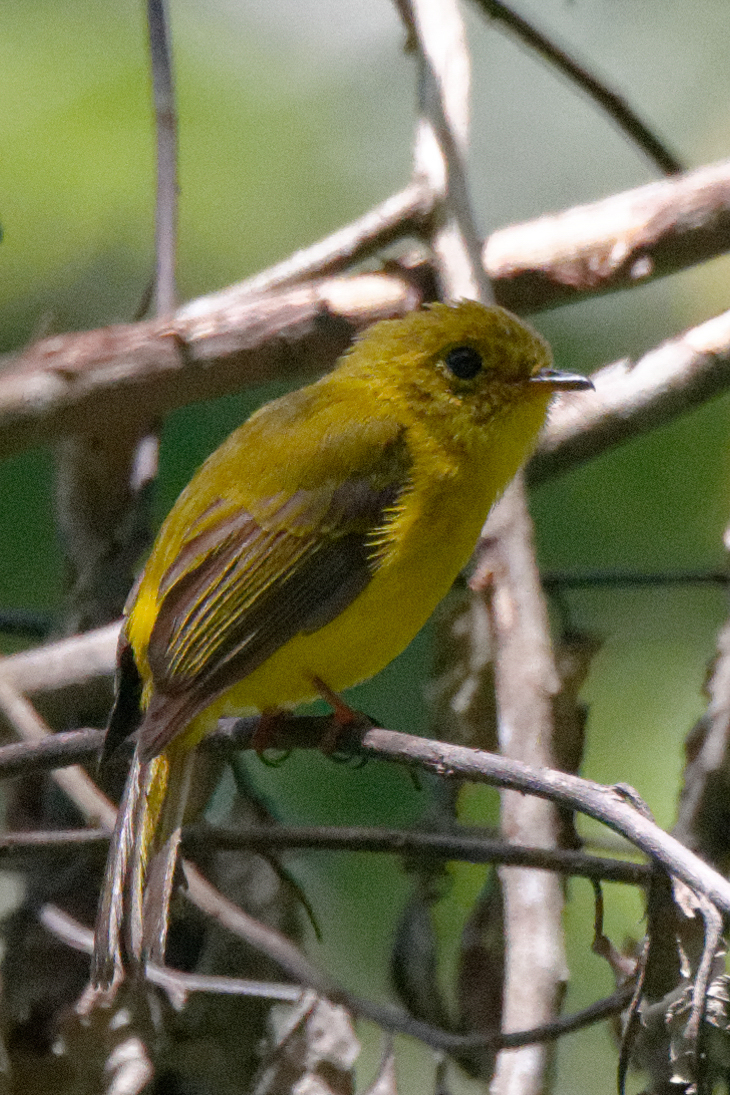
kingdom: Animalia
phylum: Chordata
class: Aves
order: Passeriformes
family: Stenostiridae
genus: Culicicapa
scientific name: Culicicapa helianthea
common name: Citrine canary-flycatcher
